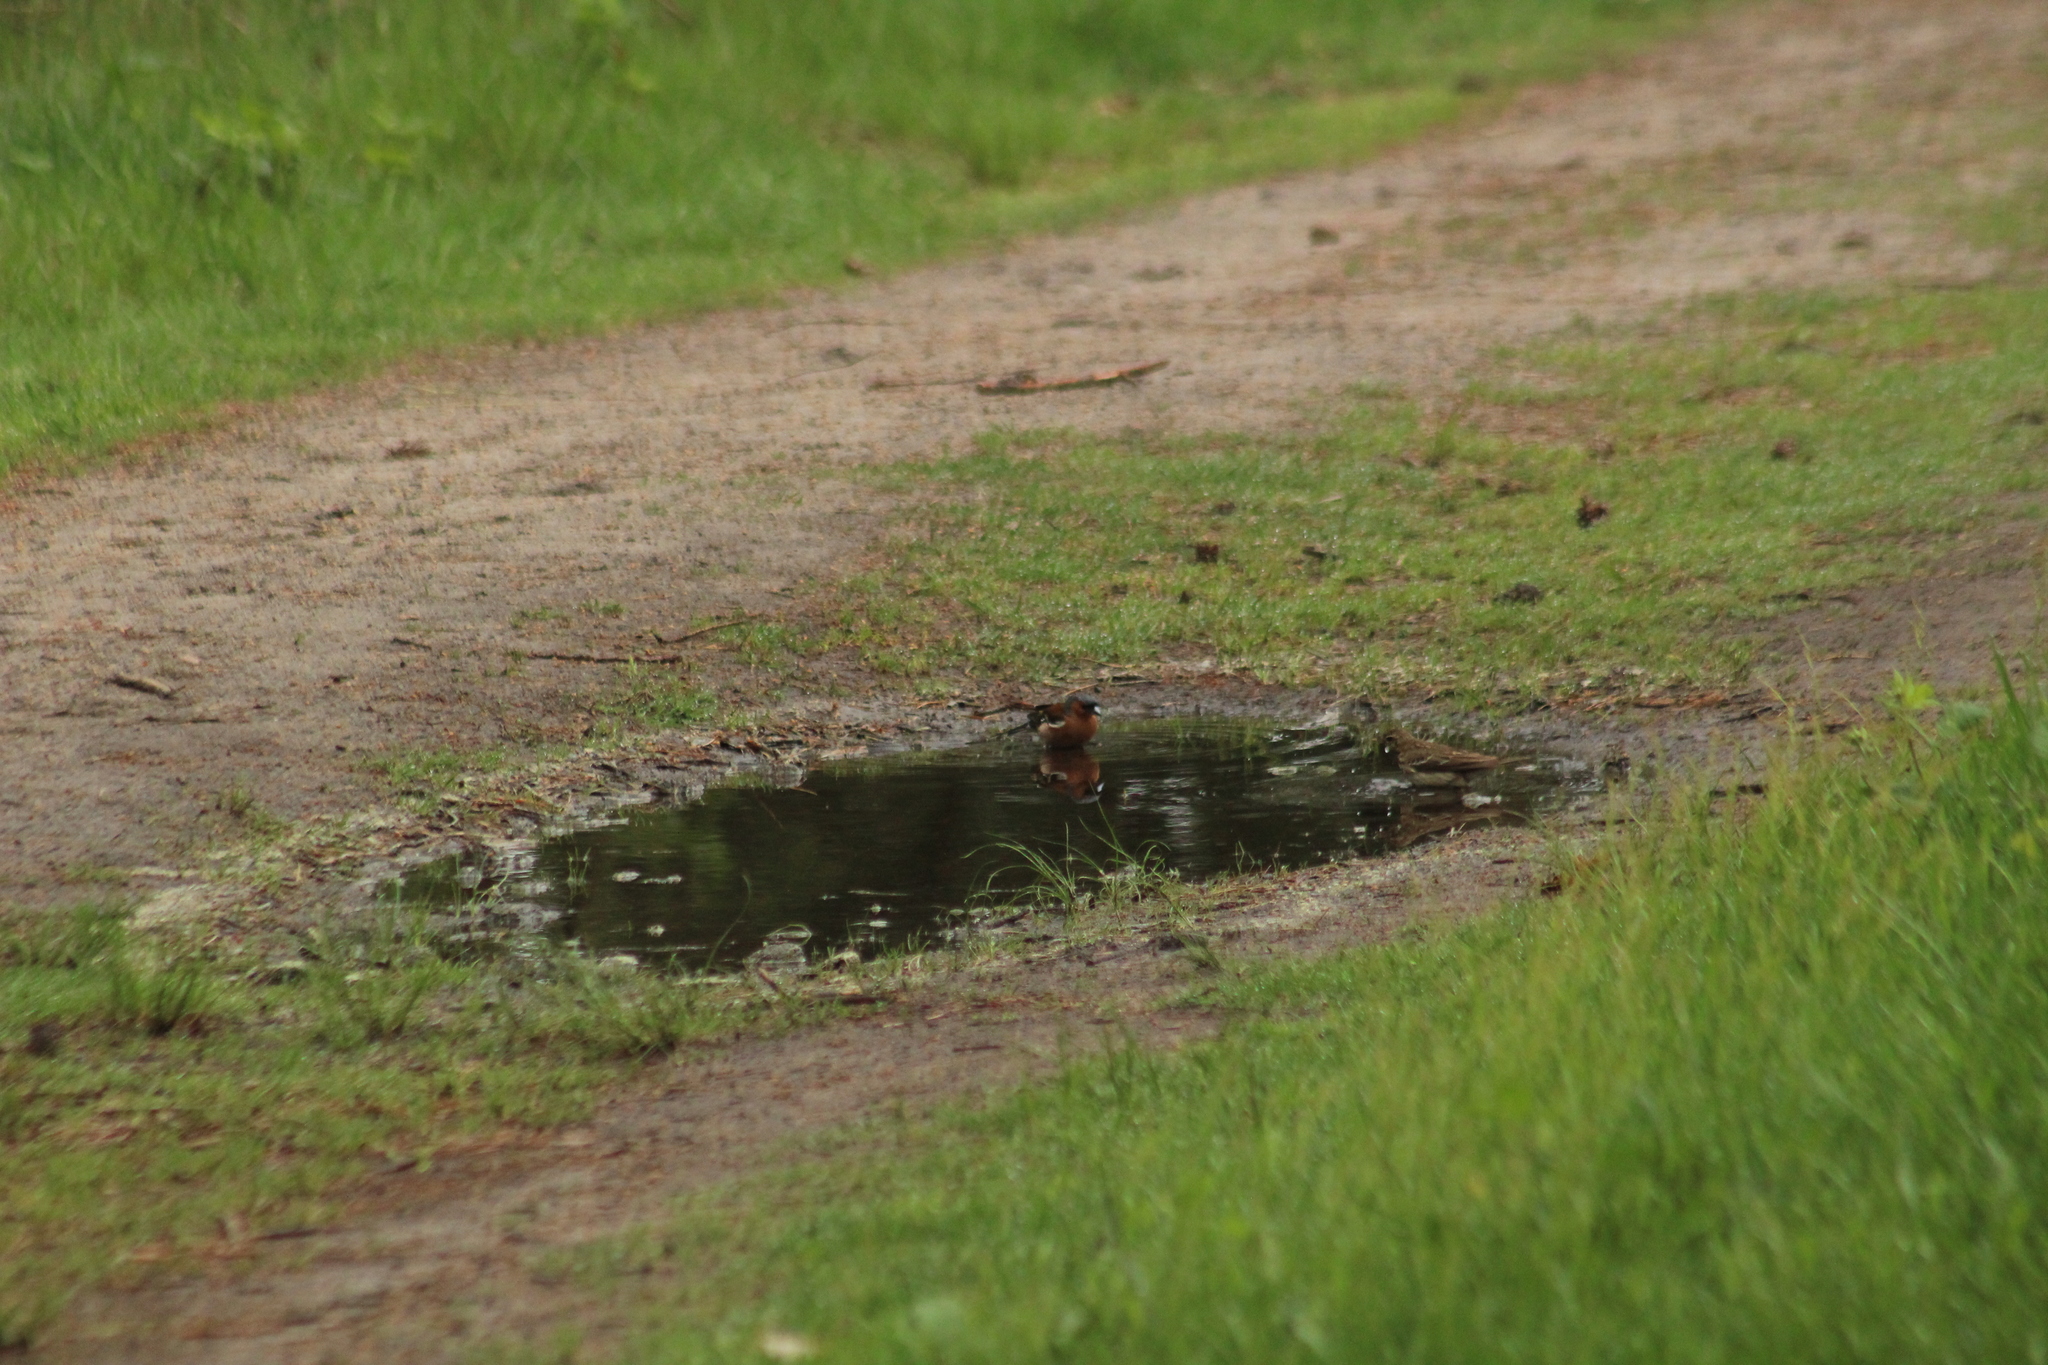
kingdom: Animalia
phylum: Chordata
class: Aves
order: Passeriformes
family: Fringillidae
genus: Fringilla
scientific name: Fringilla coelebs
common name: Common chaffinch
